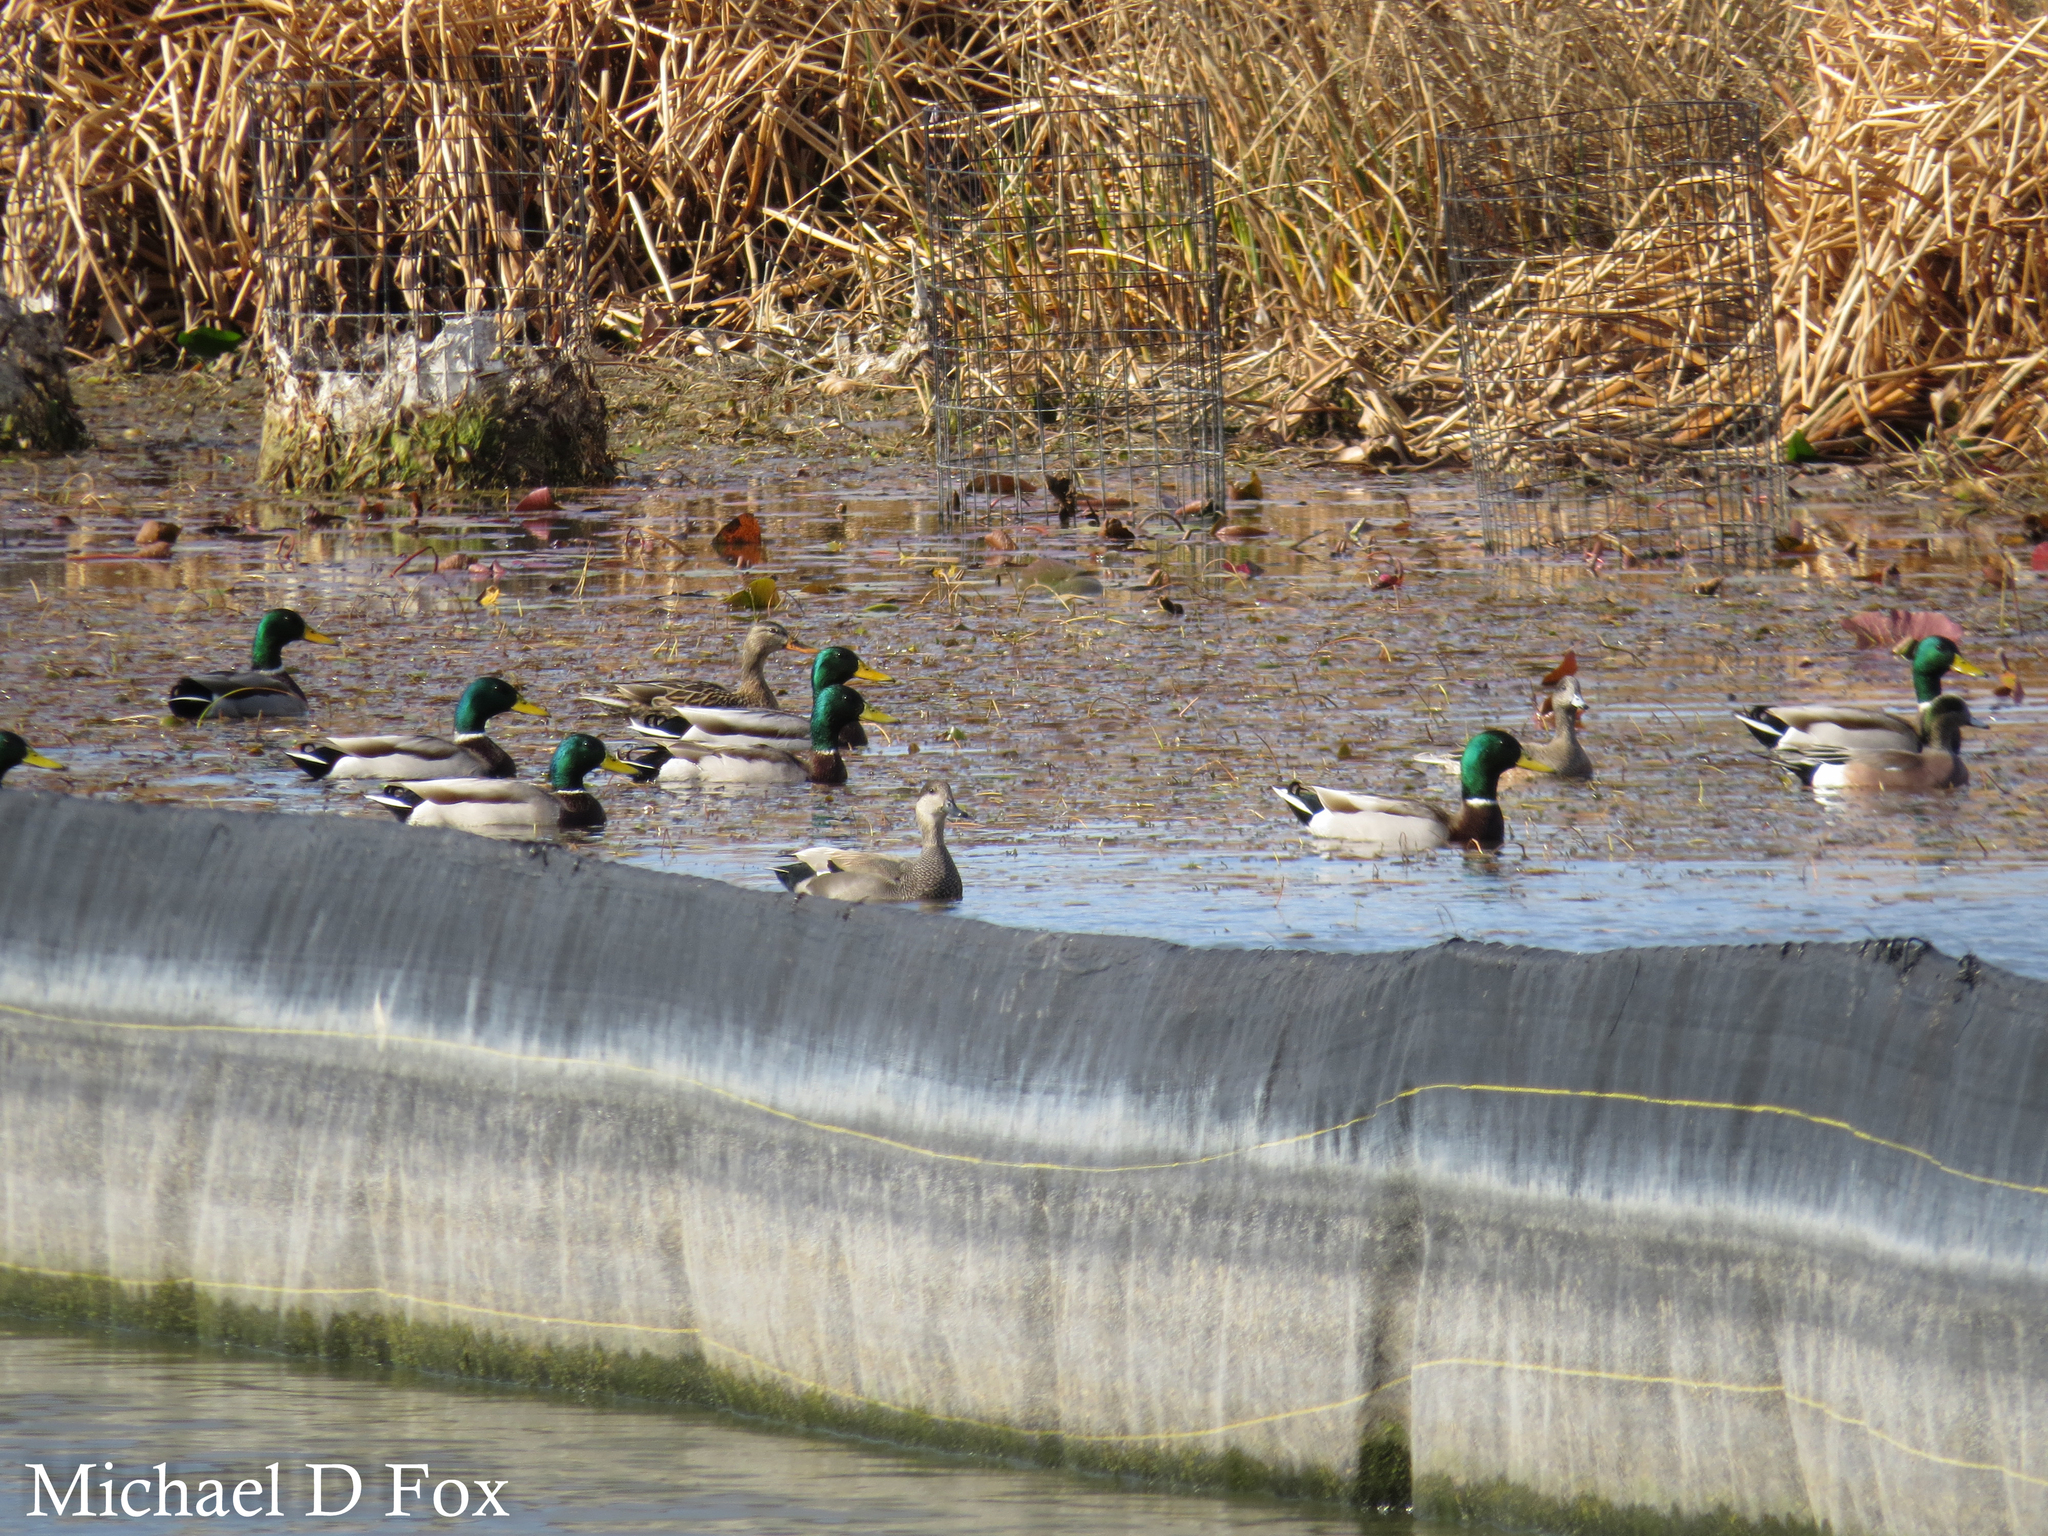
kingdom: Animalia
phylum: Chordata
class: Aves
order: Anseriformes
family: Anatidae
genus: Anas
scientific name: Anas platyrhynchos
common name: Mallard
